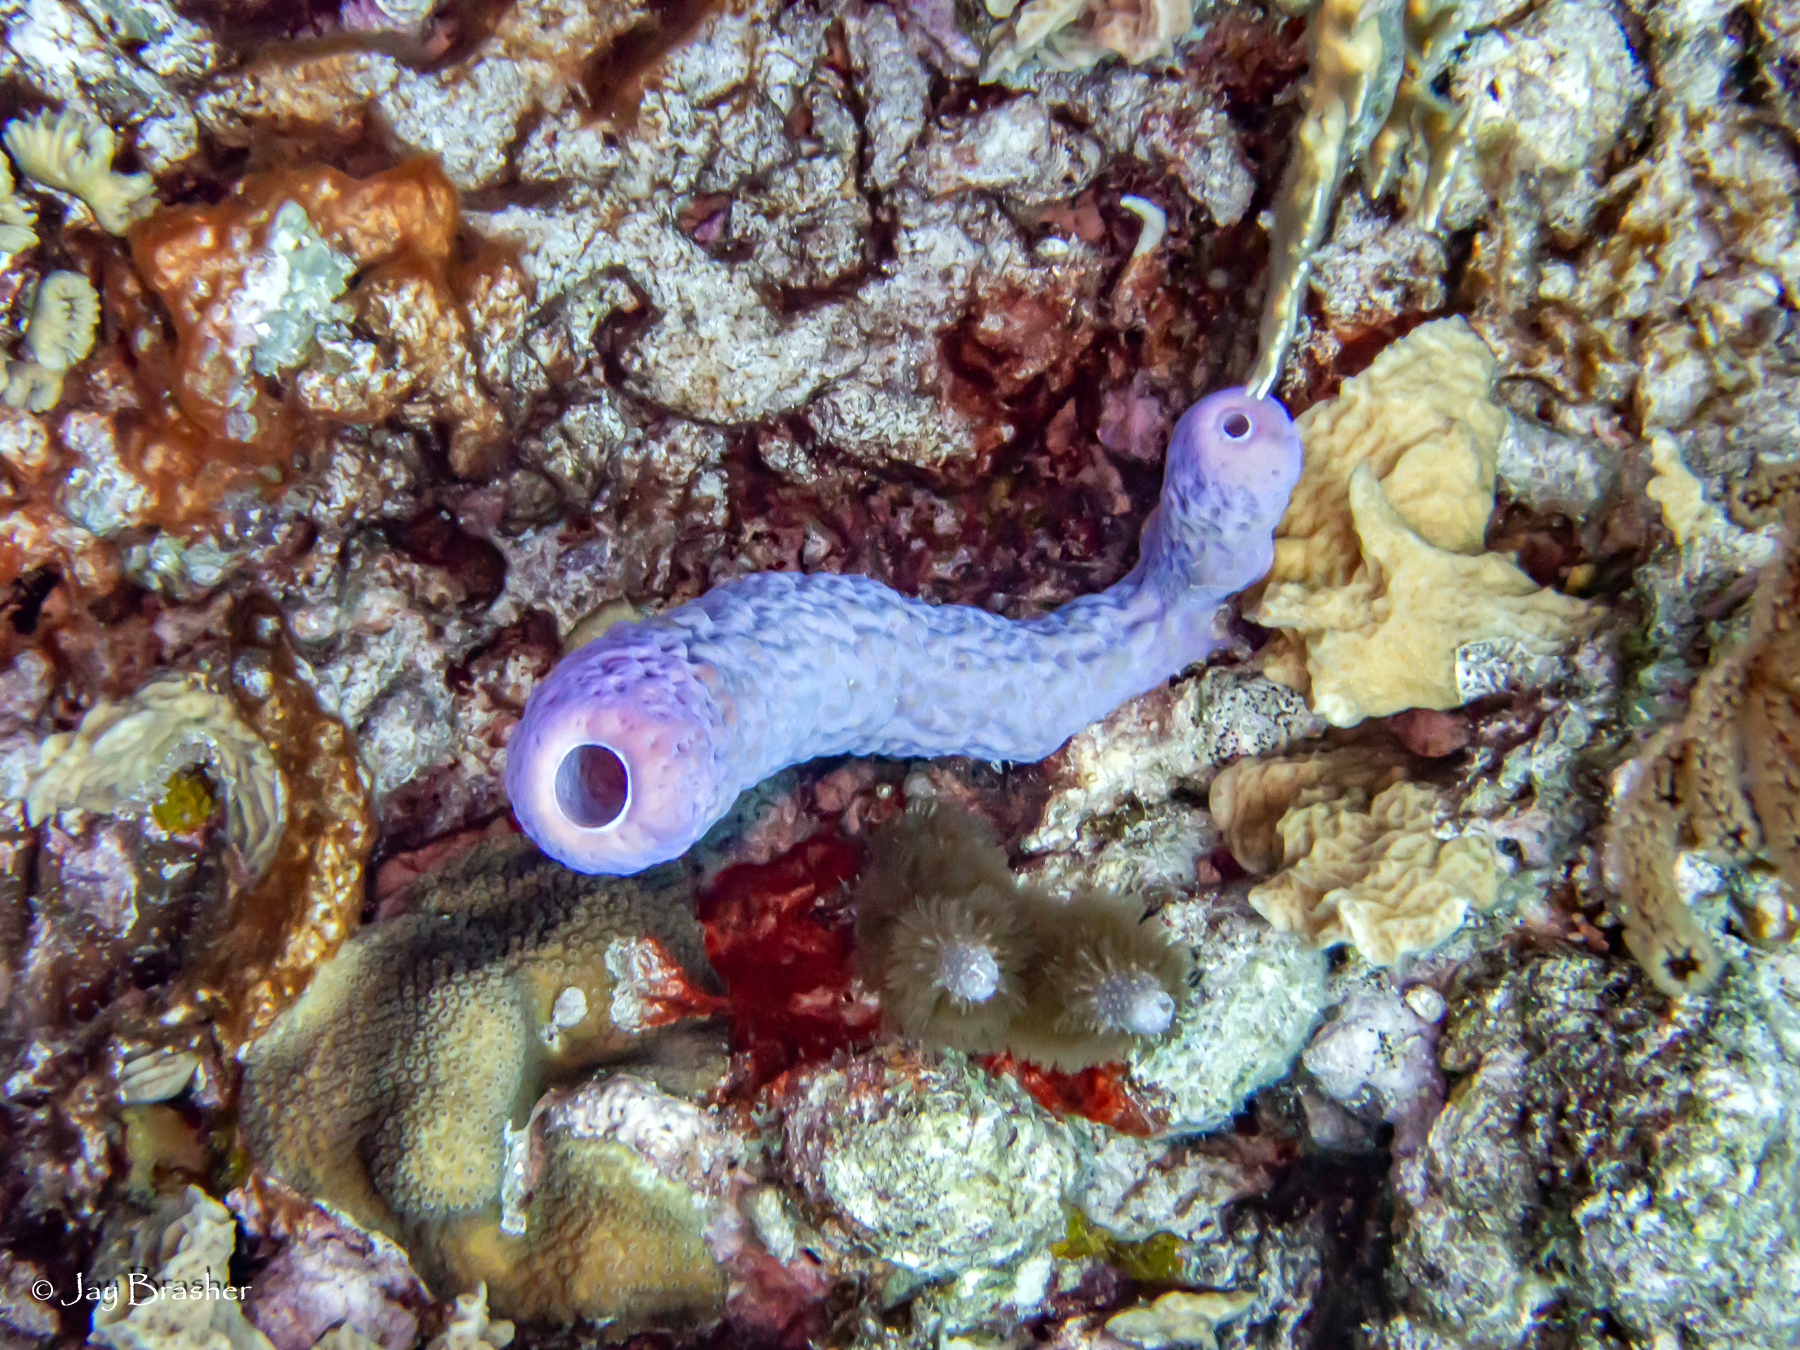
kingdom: Animalia
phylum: Porifera
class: Demospongiae
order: Verongiida
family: Aplysinidae
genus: Aplysina
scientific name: Aplysina archeri
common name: Stove-pipe sponge
